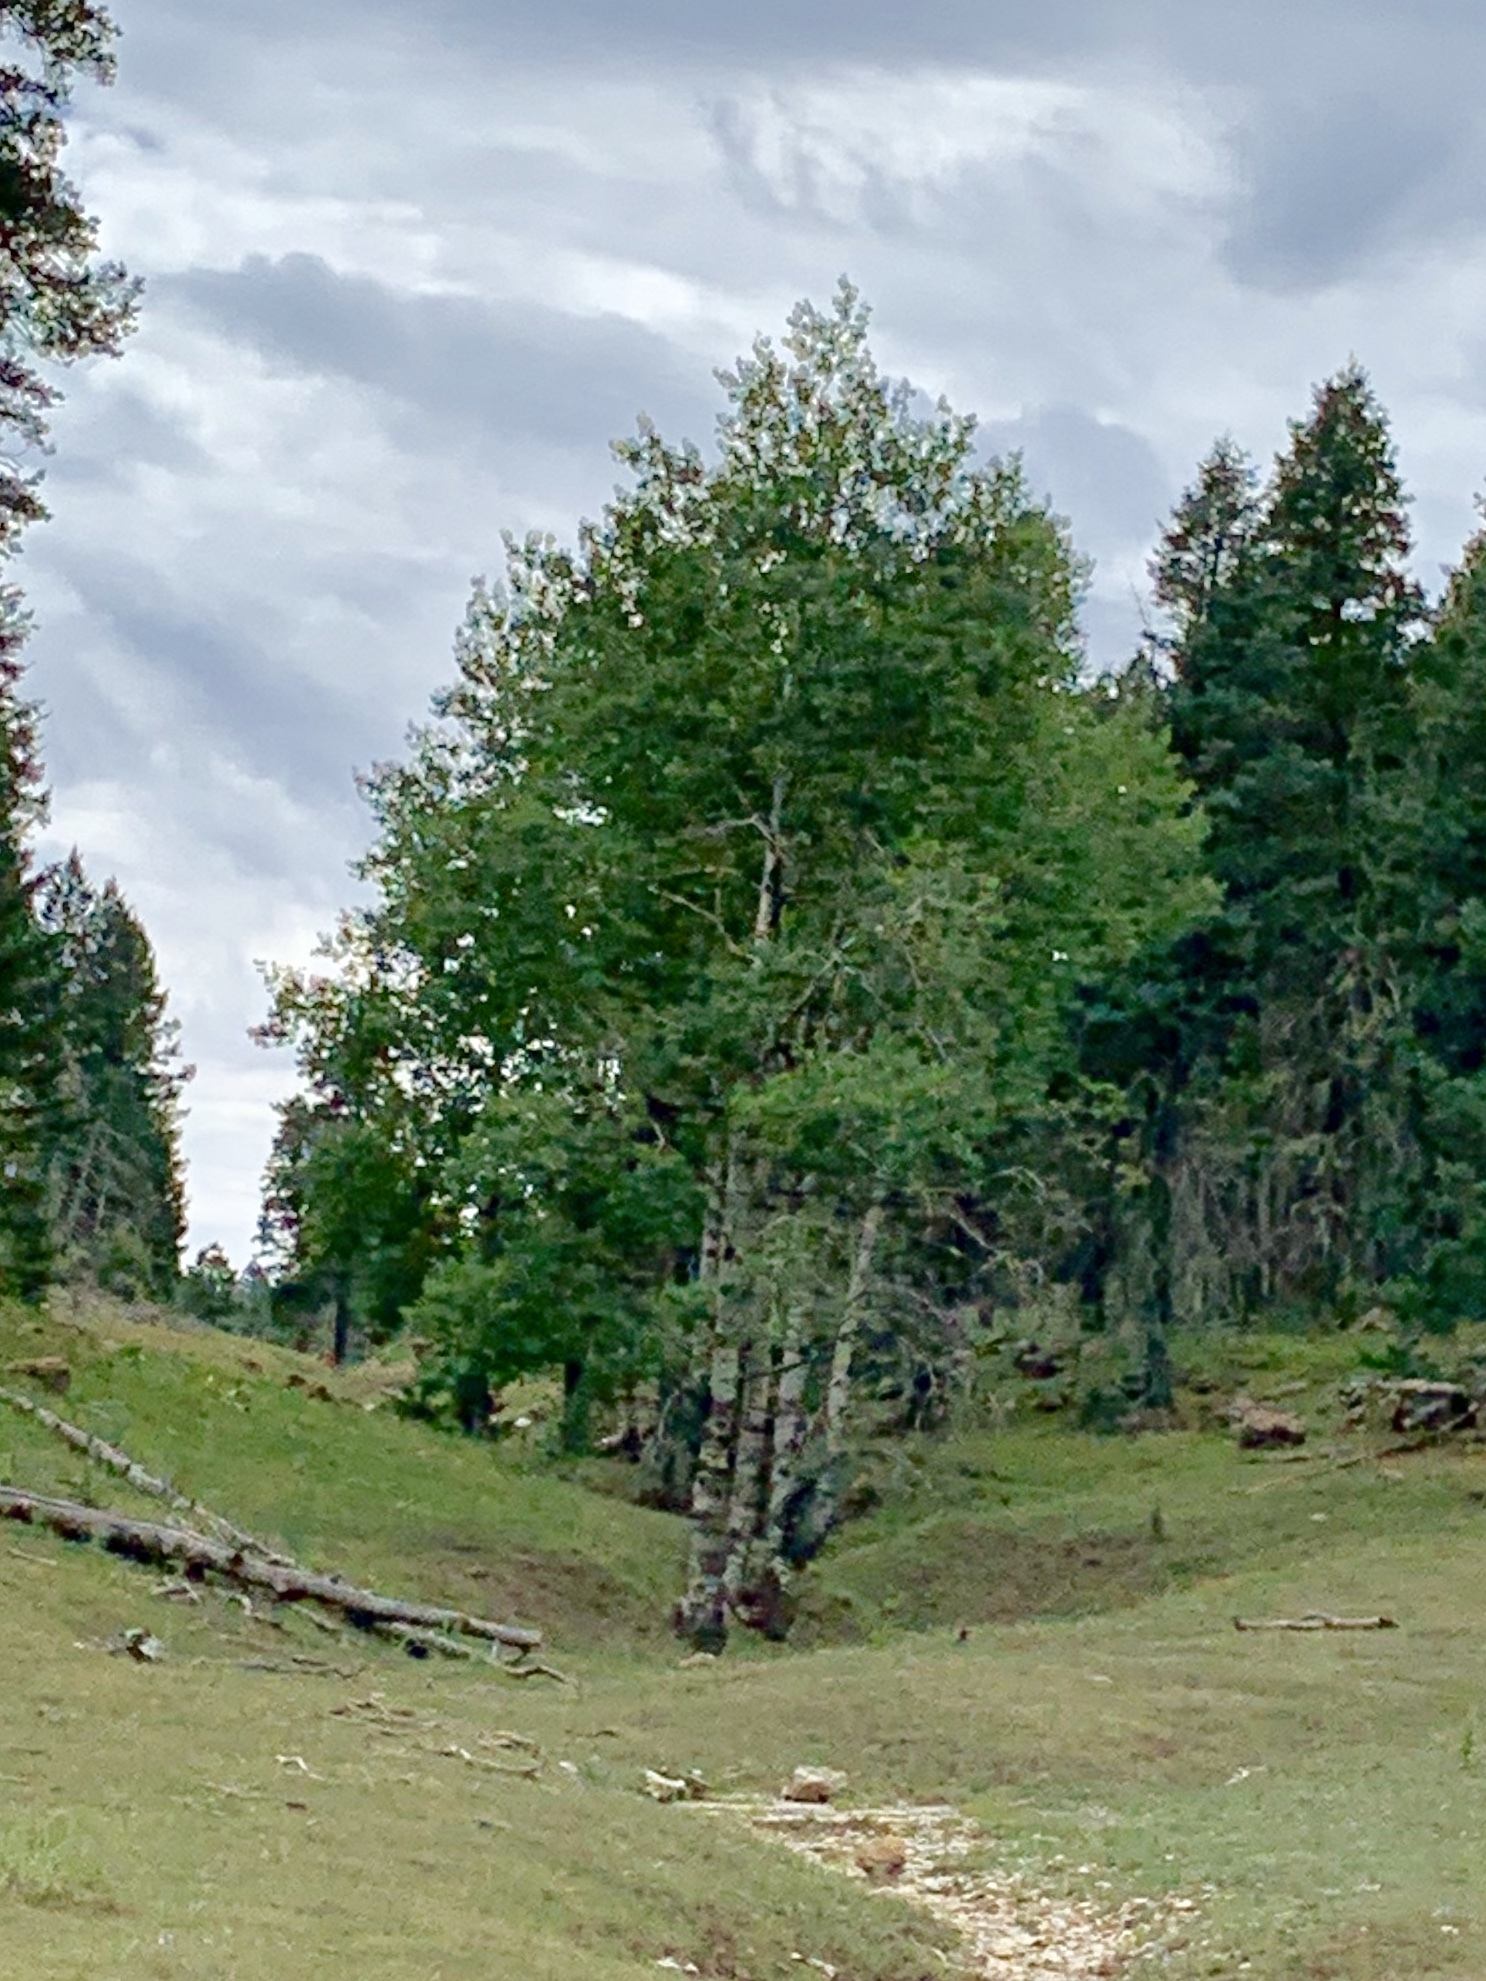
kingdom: Plantae
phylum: Tracheophyta
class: Magnoliopsida
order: Malpighiales
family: Salicaceae
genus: Populus
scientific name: Populus tremuloides
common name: Quaking aspen
